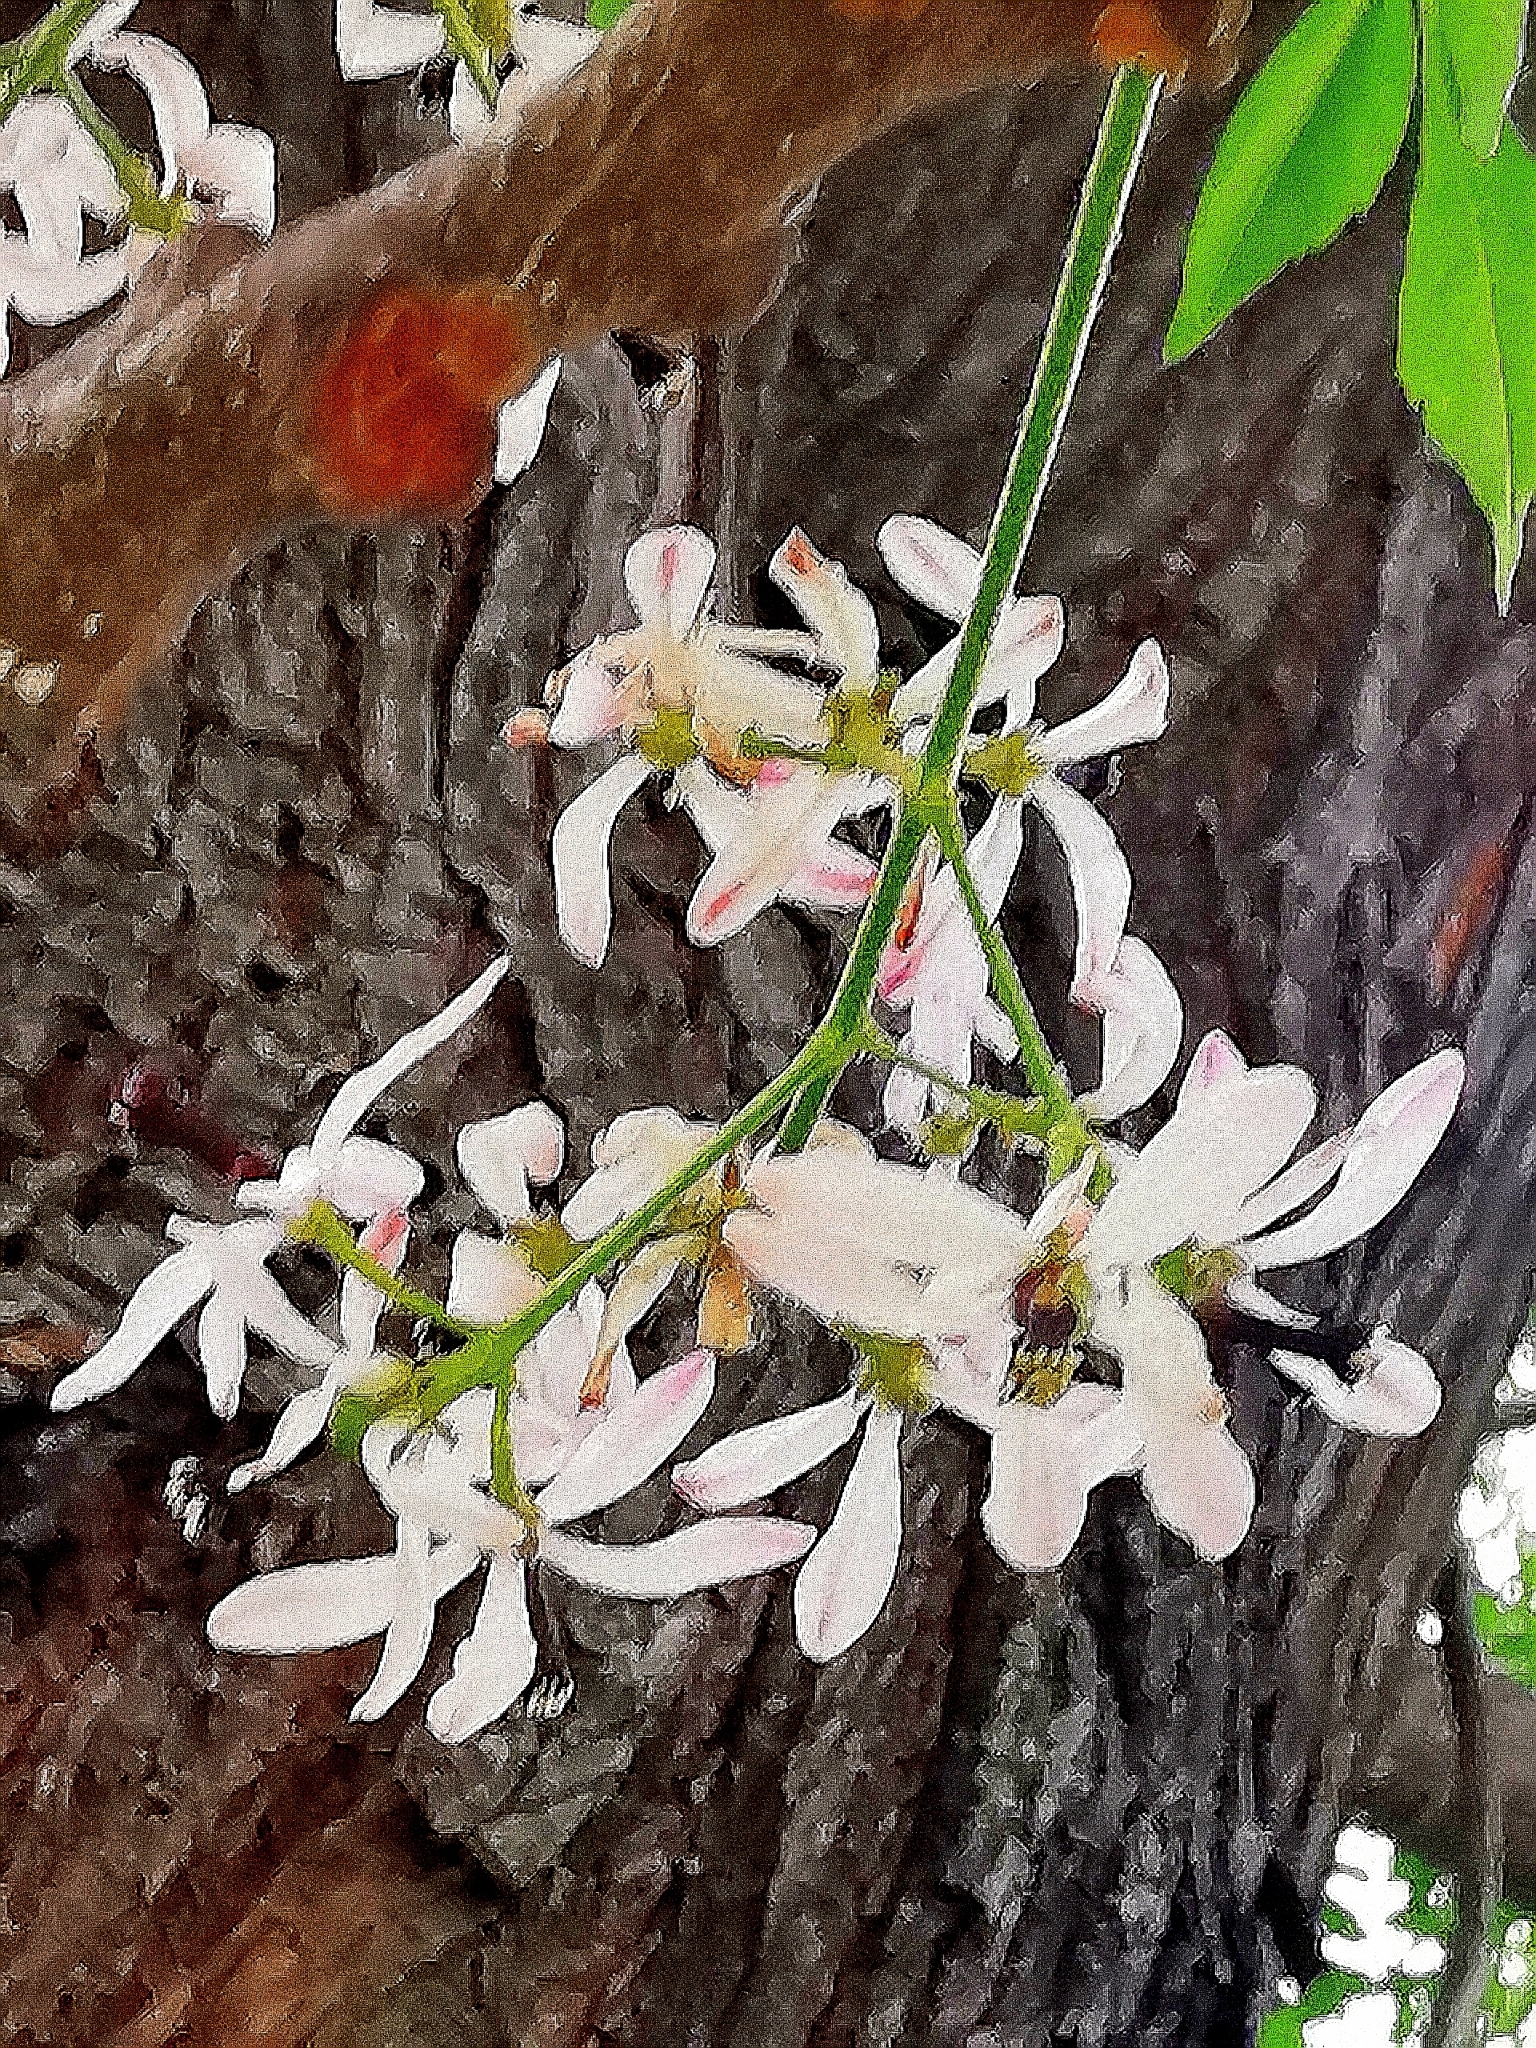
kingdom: Plantae
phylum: Tracheophyta
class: Magnoliopsida
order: Sapindales
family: Meliaceae
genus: Melia
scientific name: Melia azedarach
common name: Chinaberrytree
